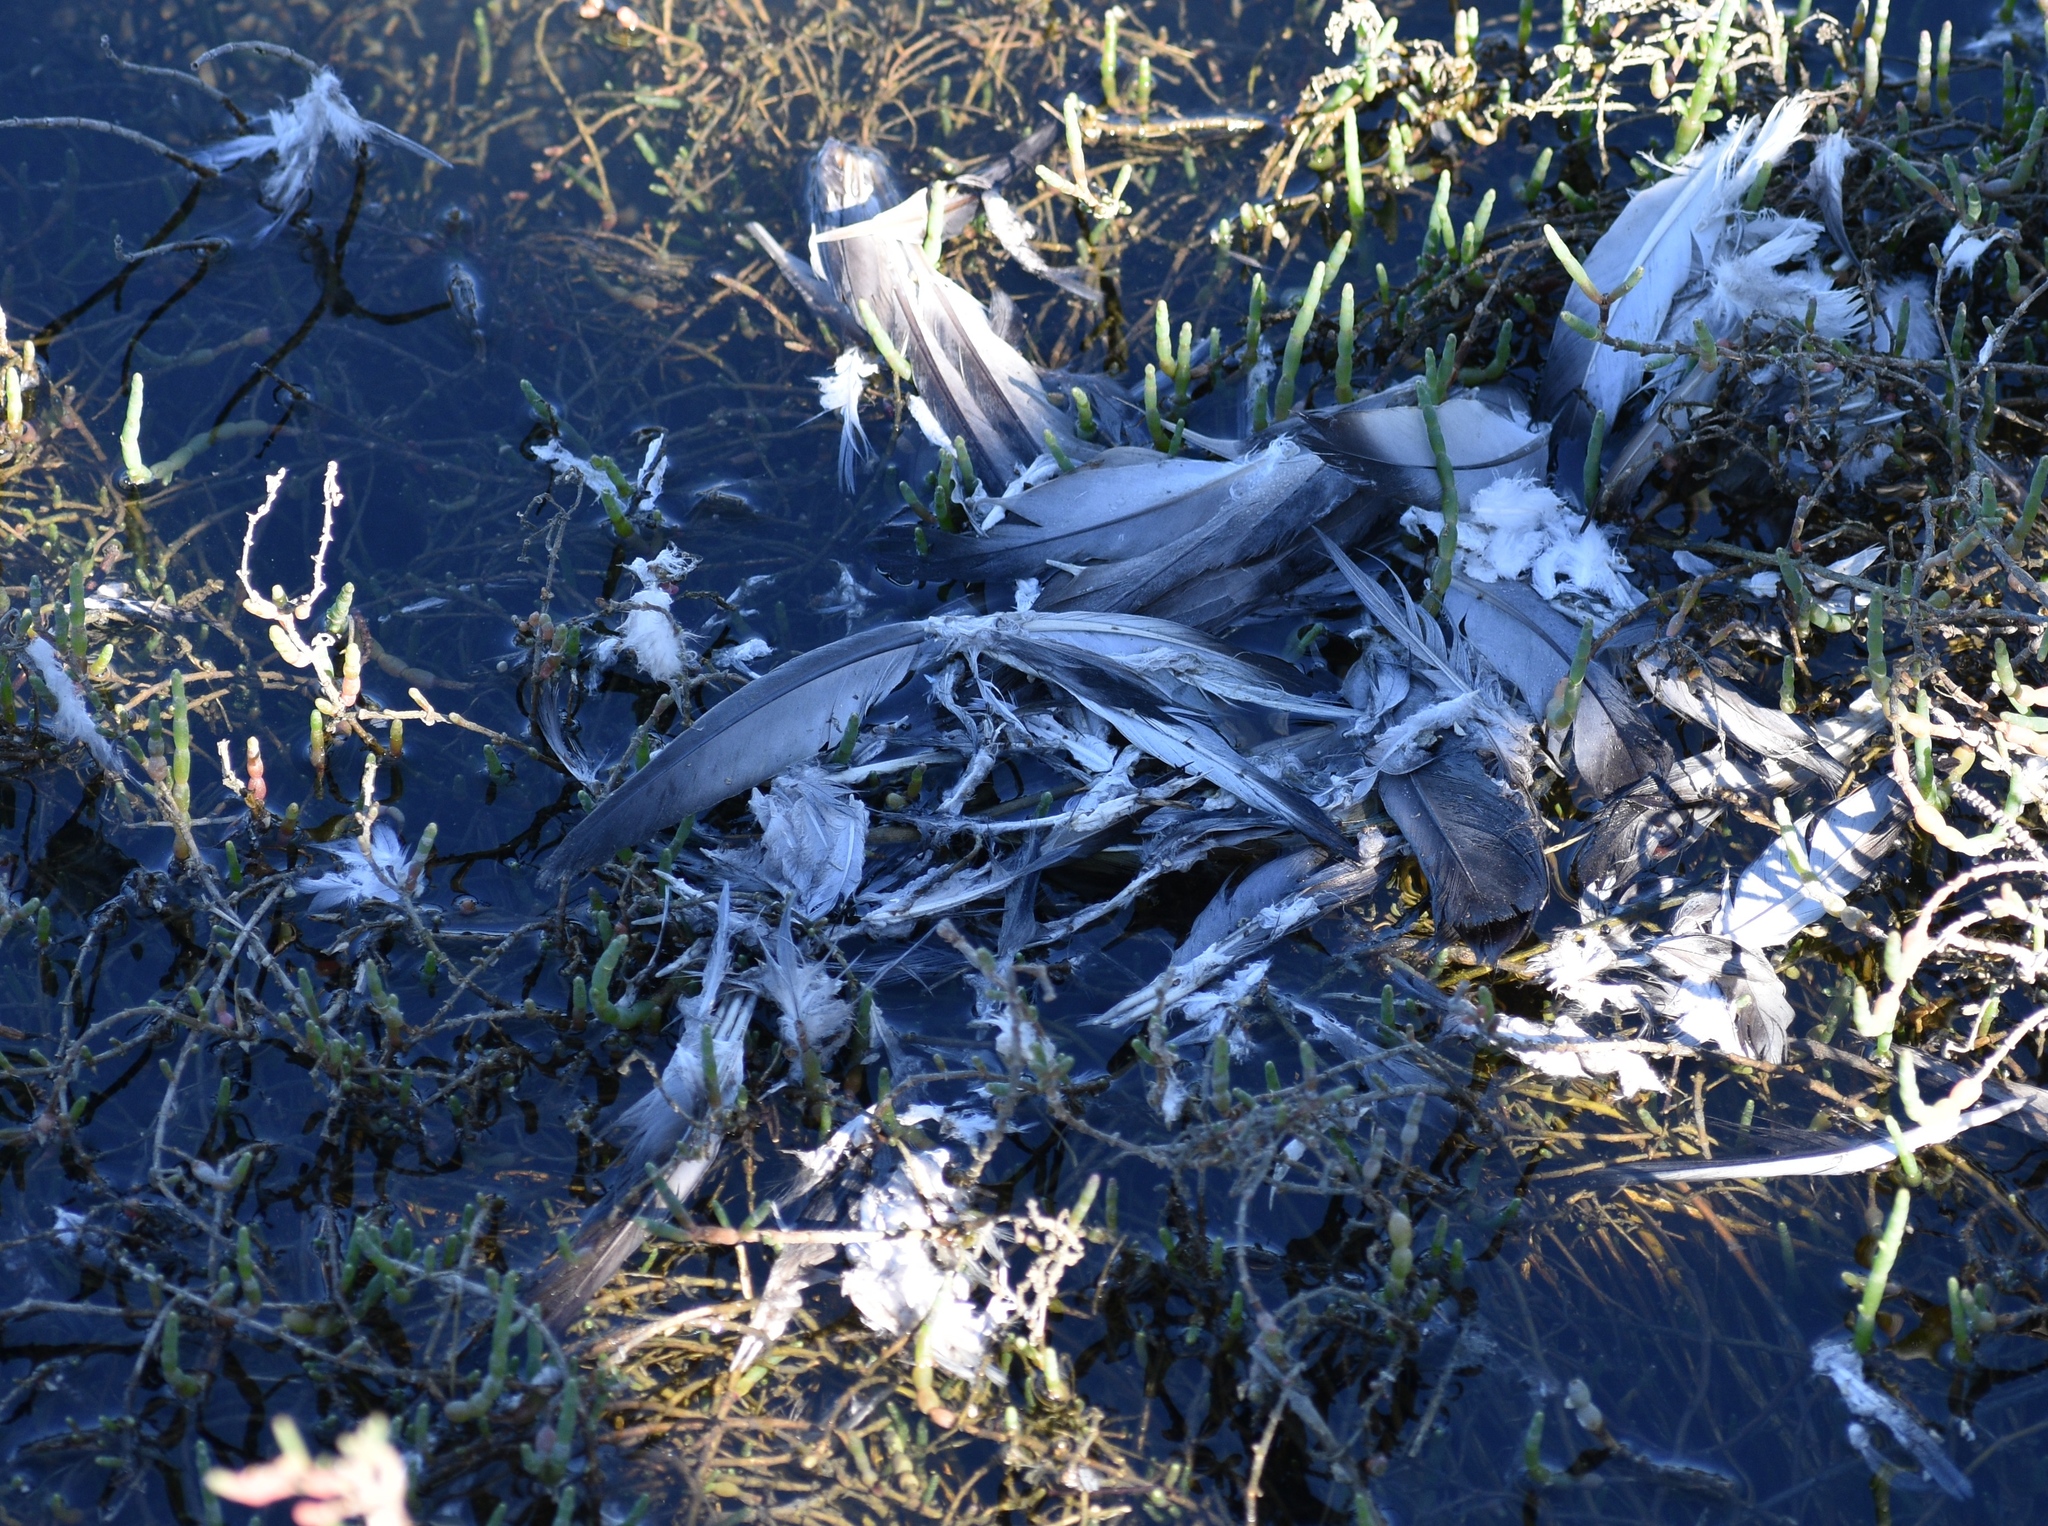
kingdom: Animalia
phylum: Chordata
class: Aves
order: Columbiformes
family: Columbidae
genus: Columba
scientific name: Columba livia
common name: Rock pigeon
